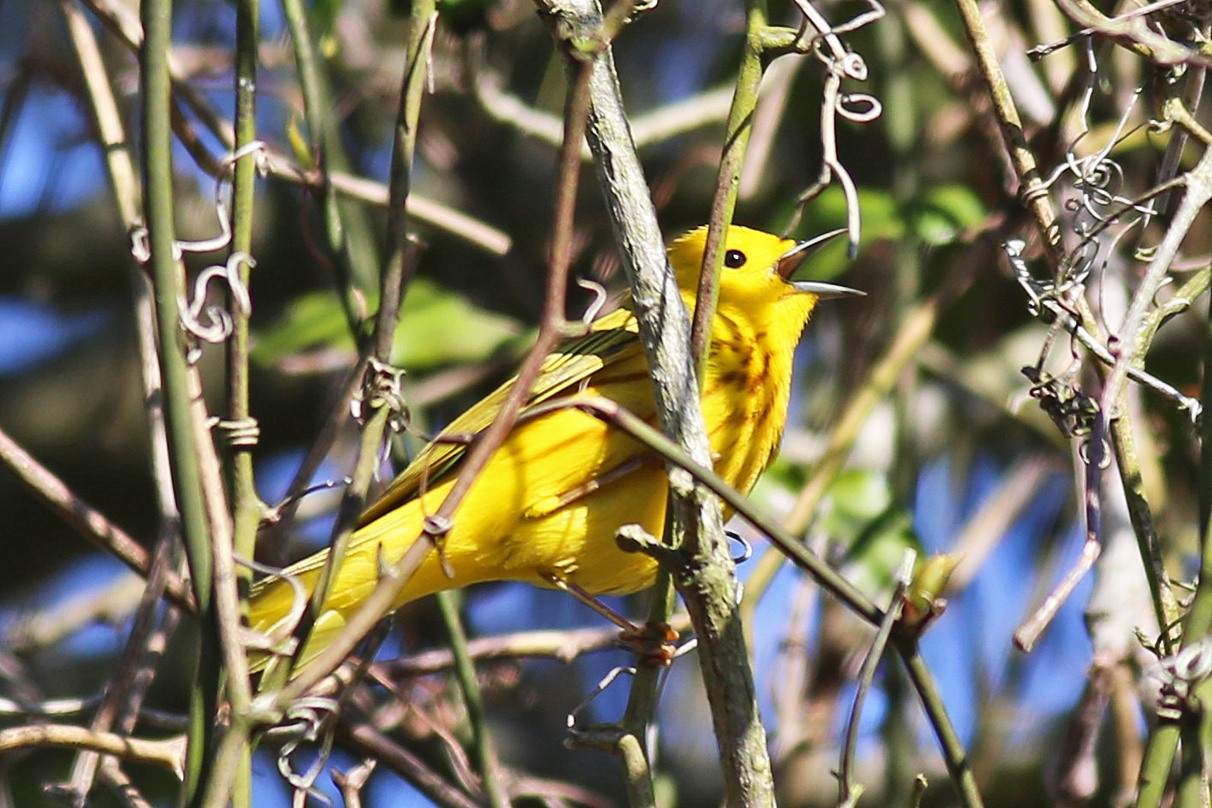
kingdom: Animalia
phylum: Chordata
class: Aves
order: Passeriformes
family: Parulidae
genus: Setophaga
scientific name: Setophaga petechia
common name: Yellow warbler
